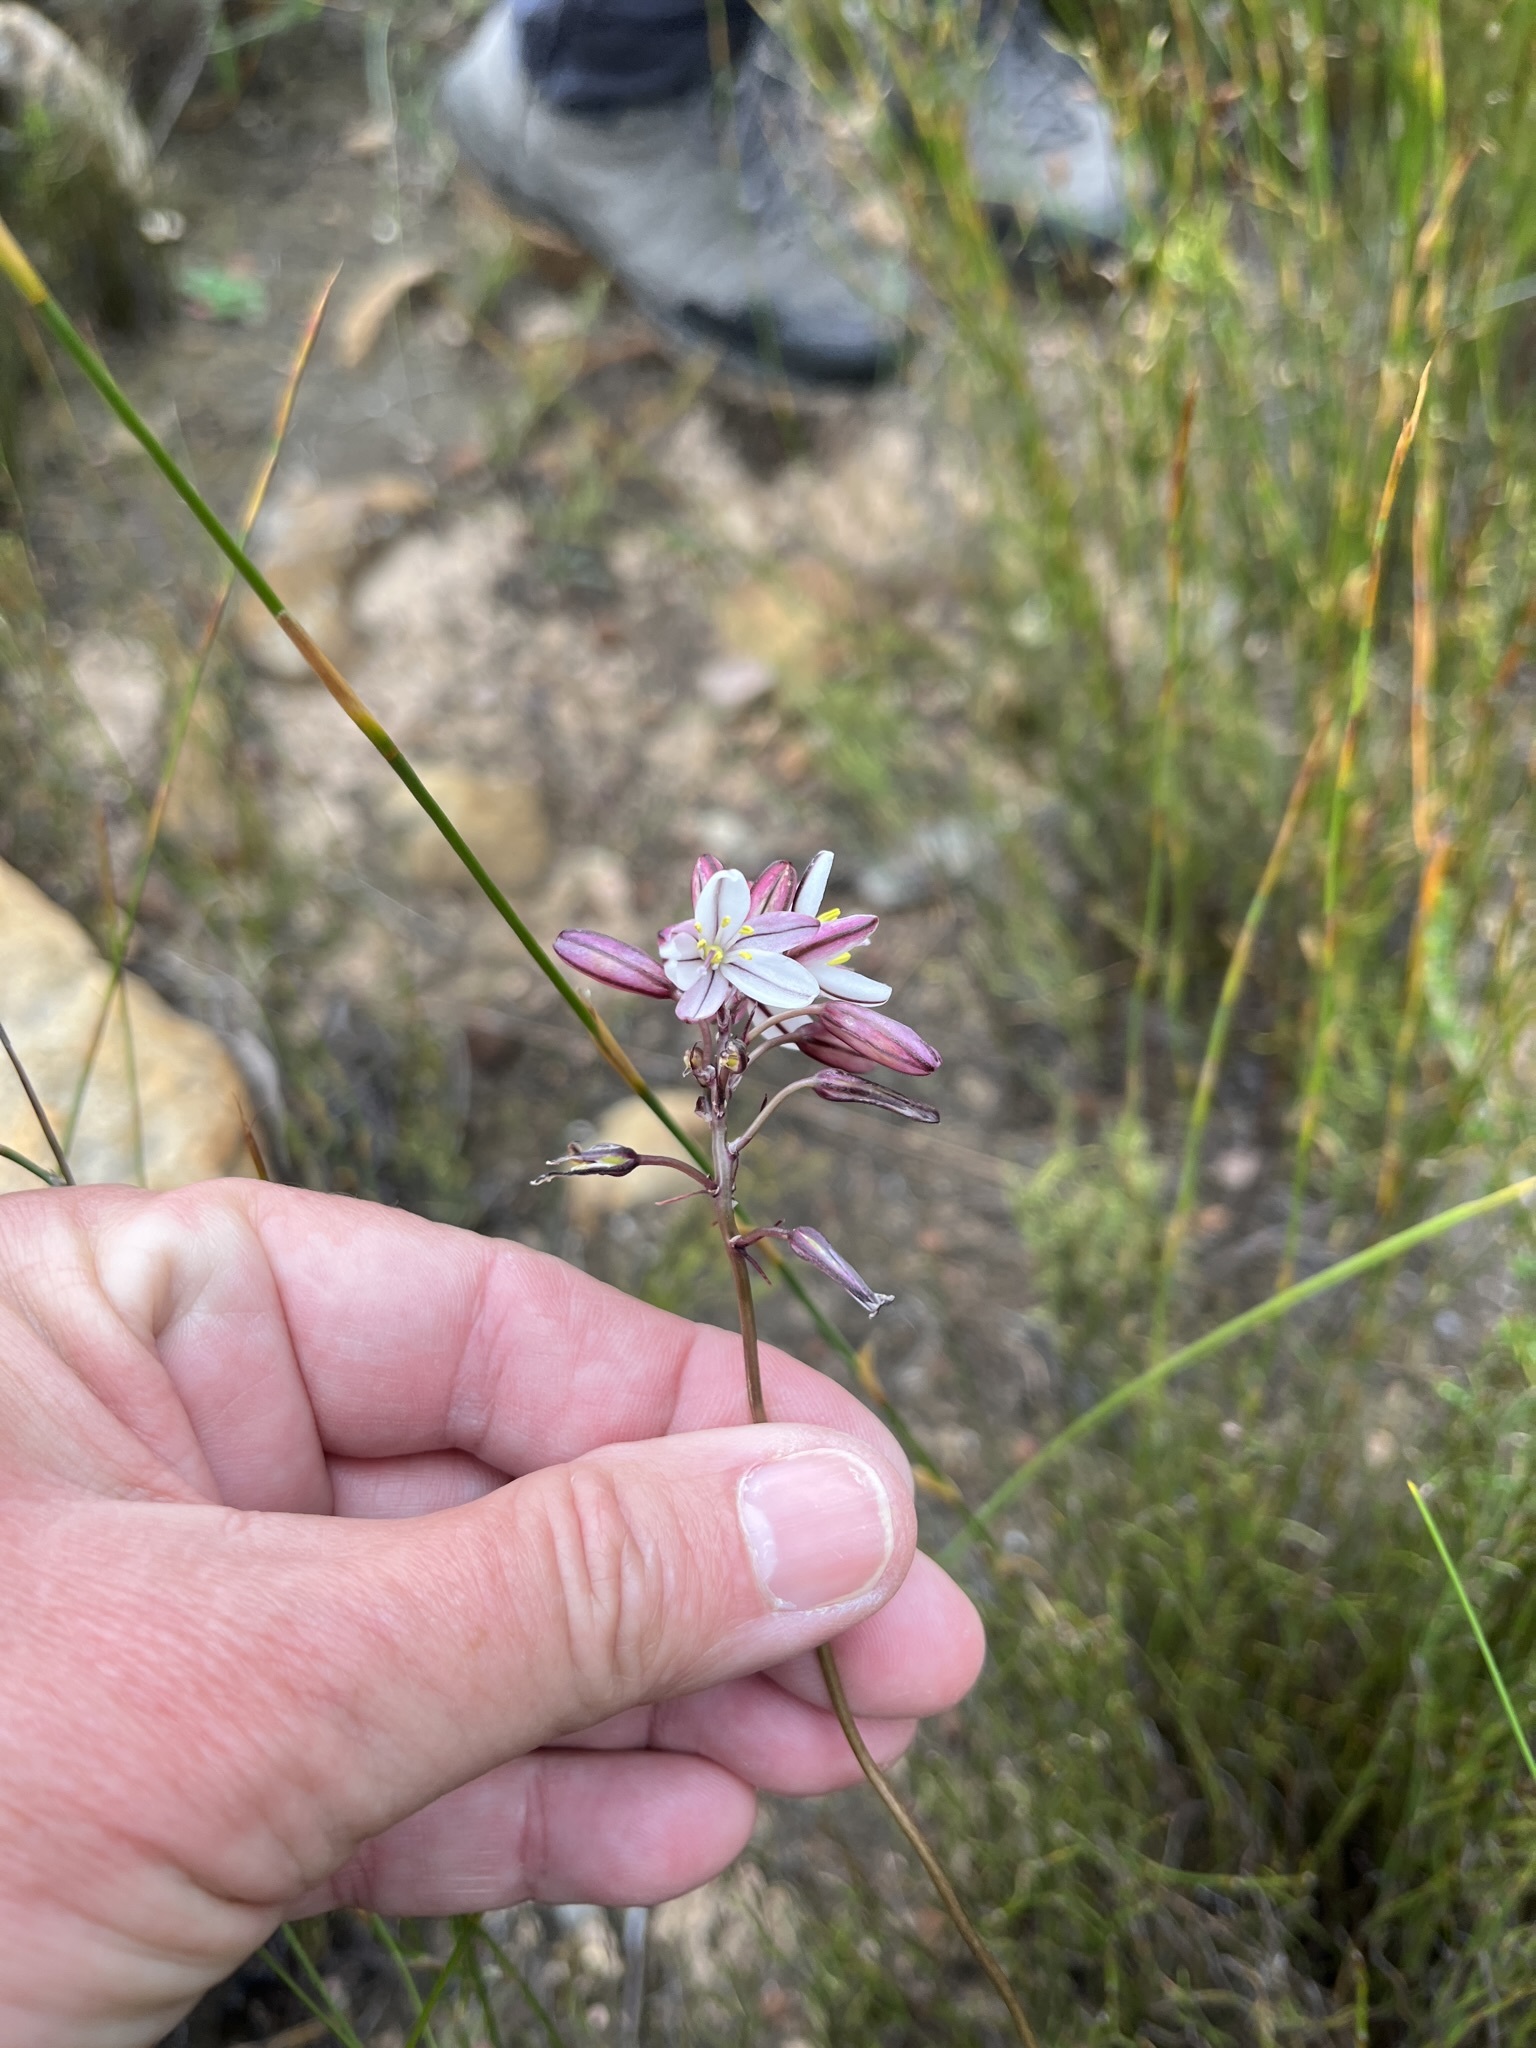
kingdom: Plantae
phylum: Tracheophyta
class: Liliopsida
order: Asparagales
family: Asparagaceae
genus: Drimia
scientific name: Drimia exuviata
